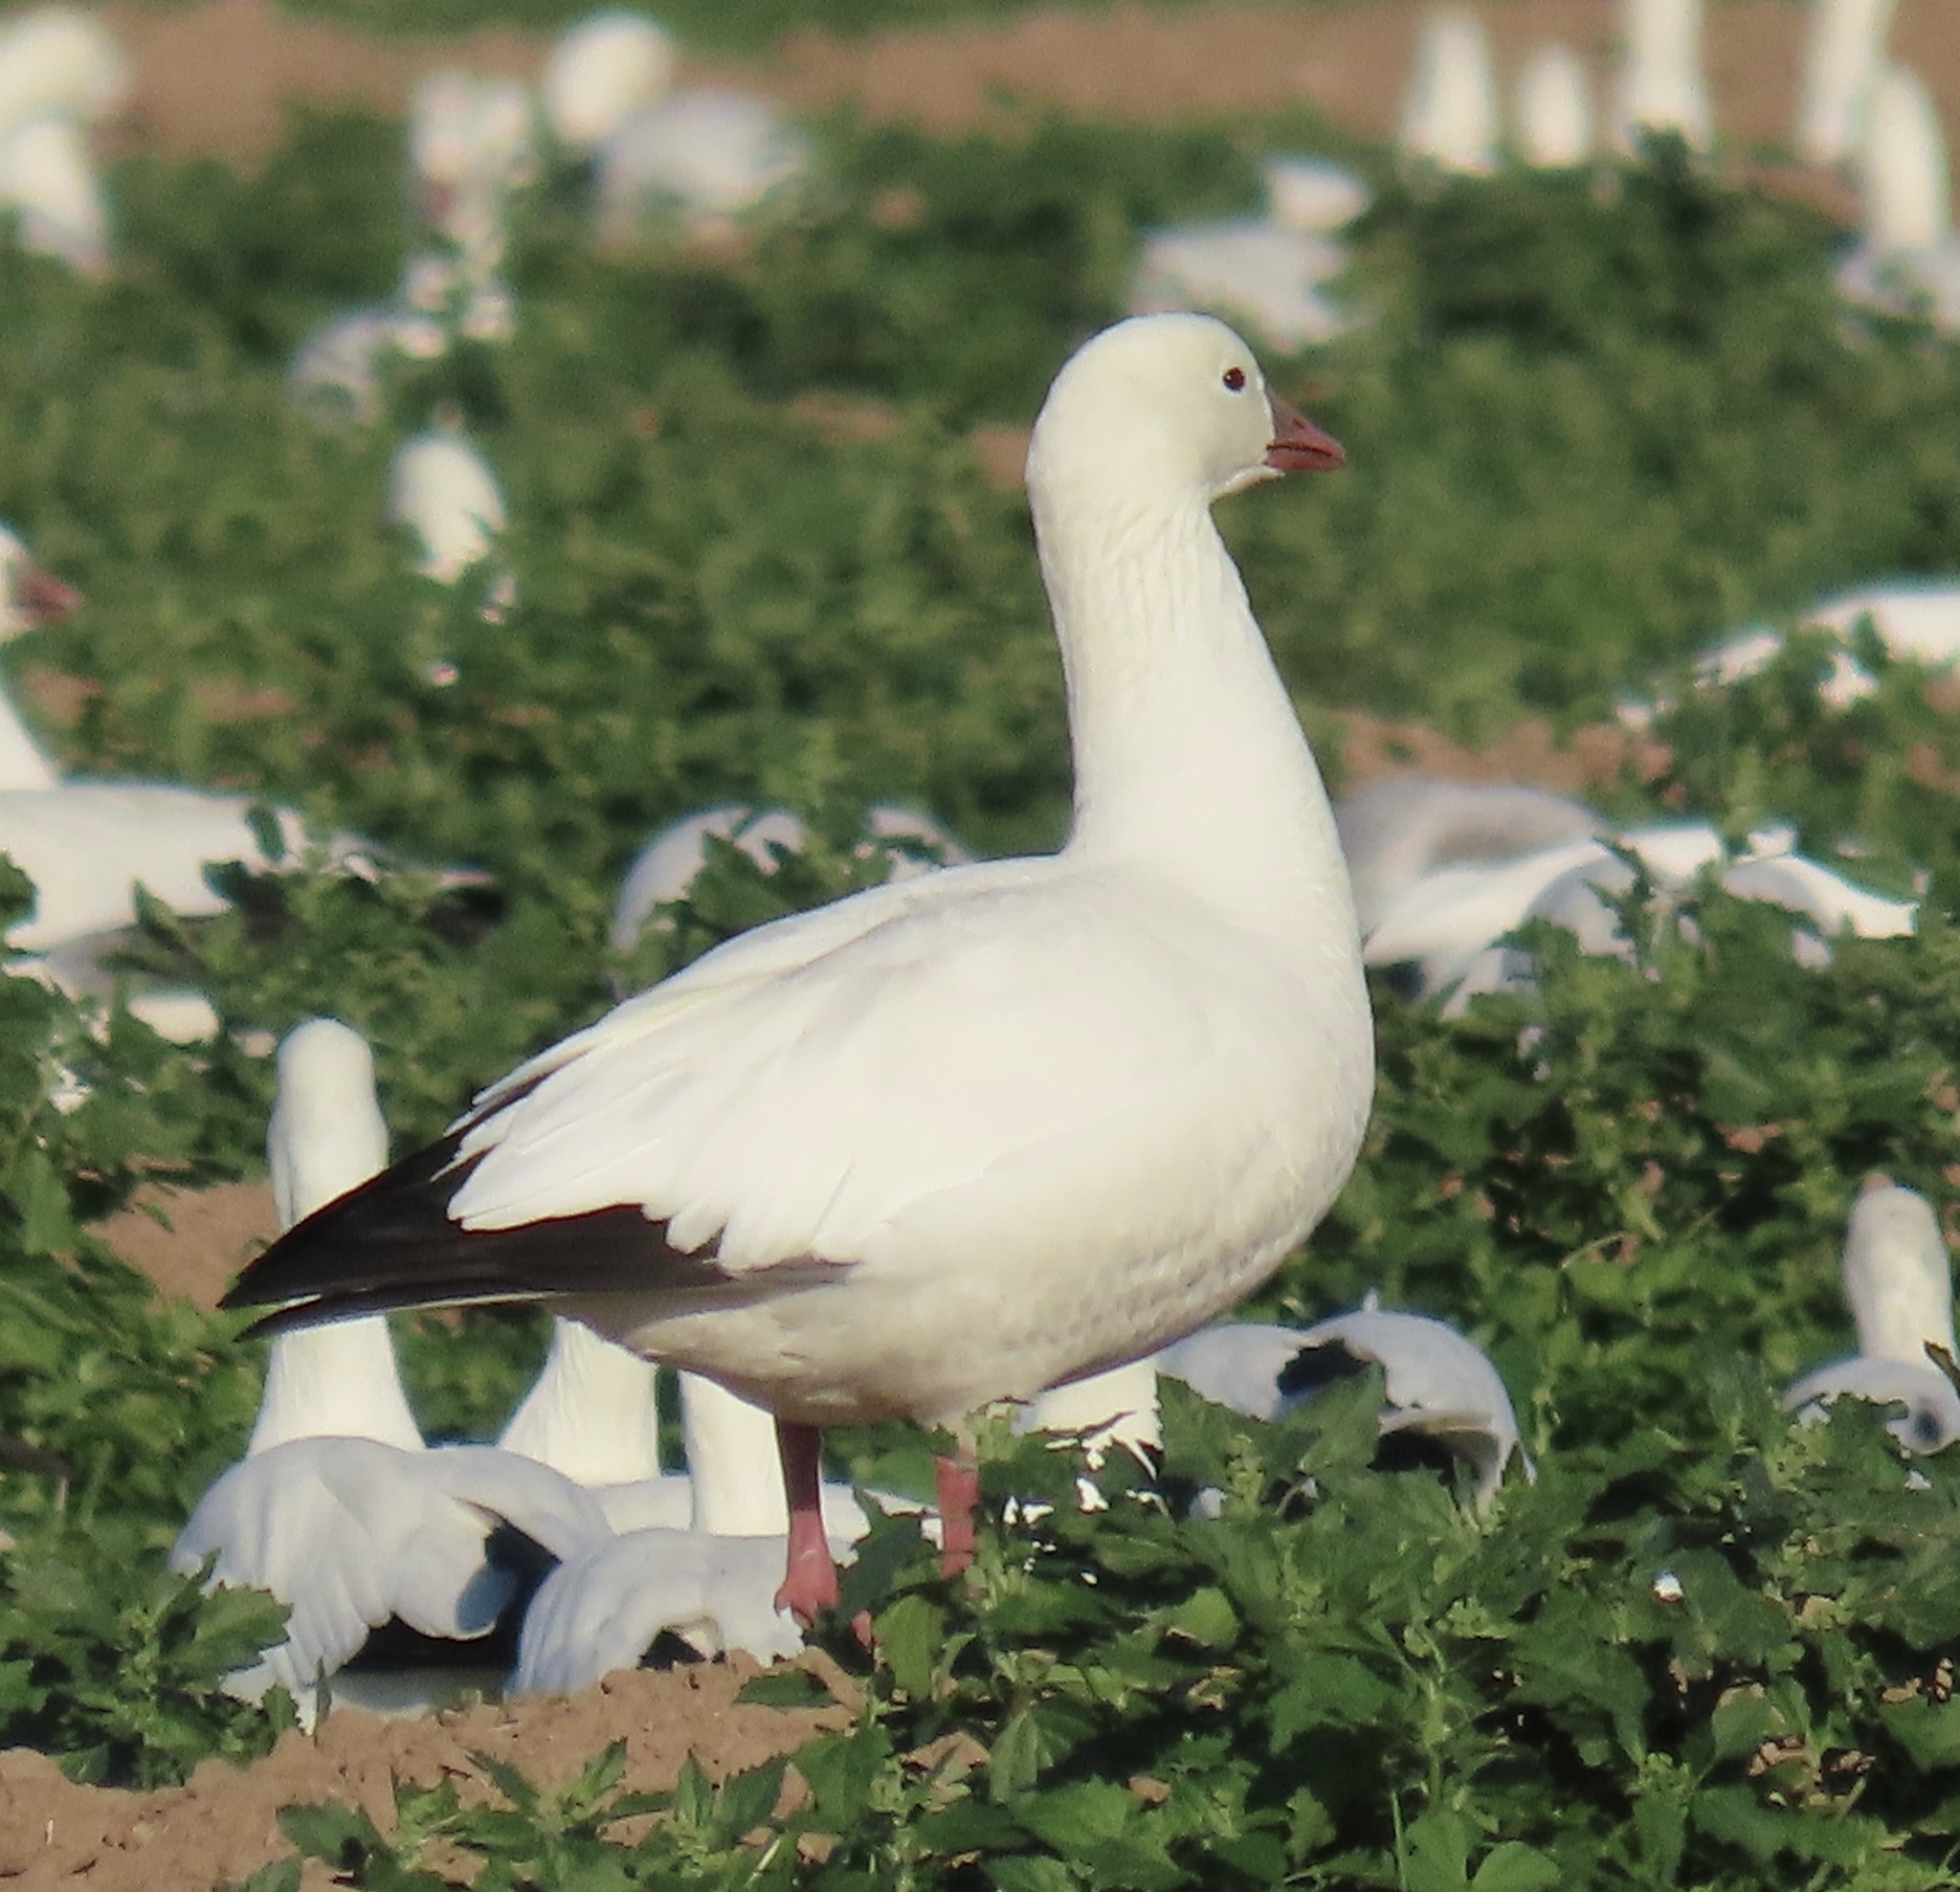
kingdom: Animalia
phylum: Chordata
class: Aves
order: Anseriformes
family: Anatidae
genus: Anser
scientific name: Anser rossii
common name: Ross's goose
